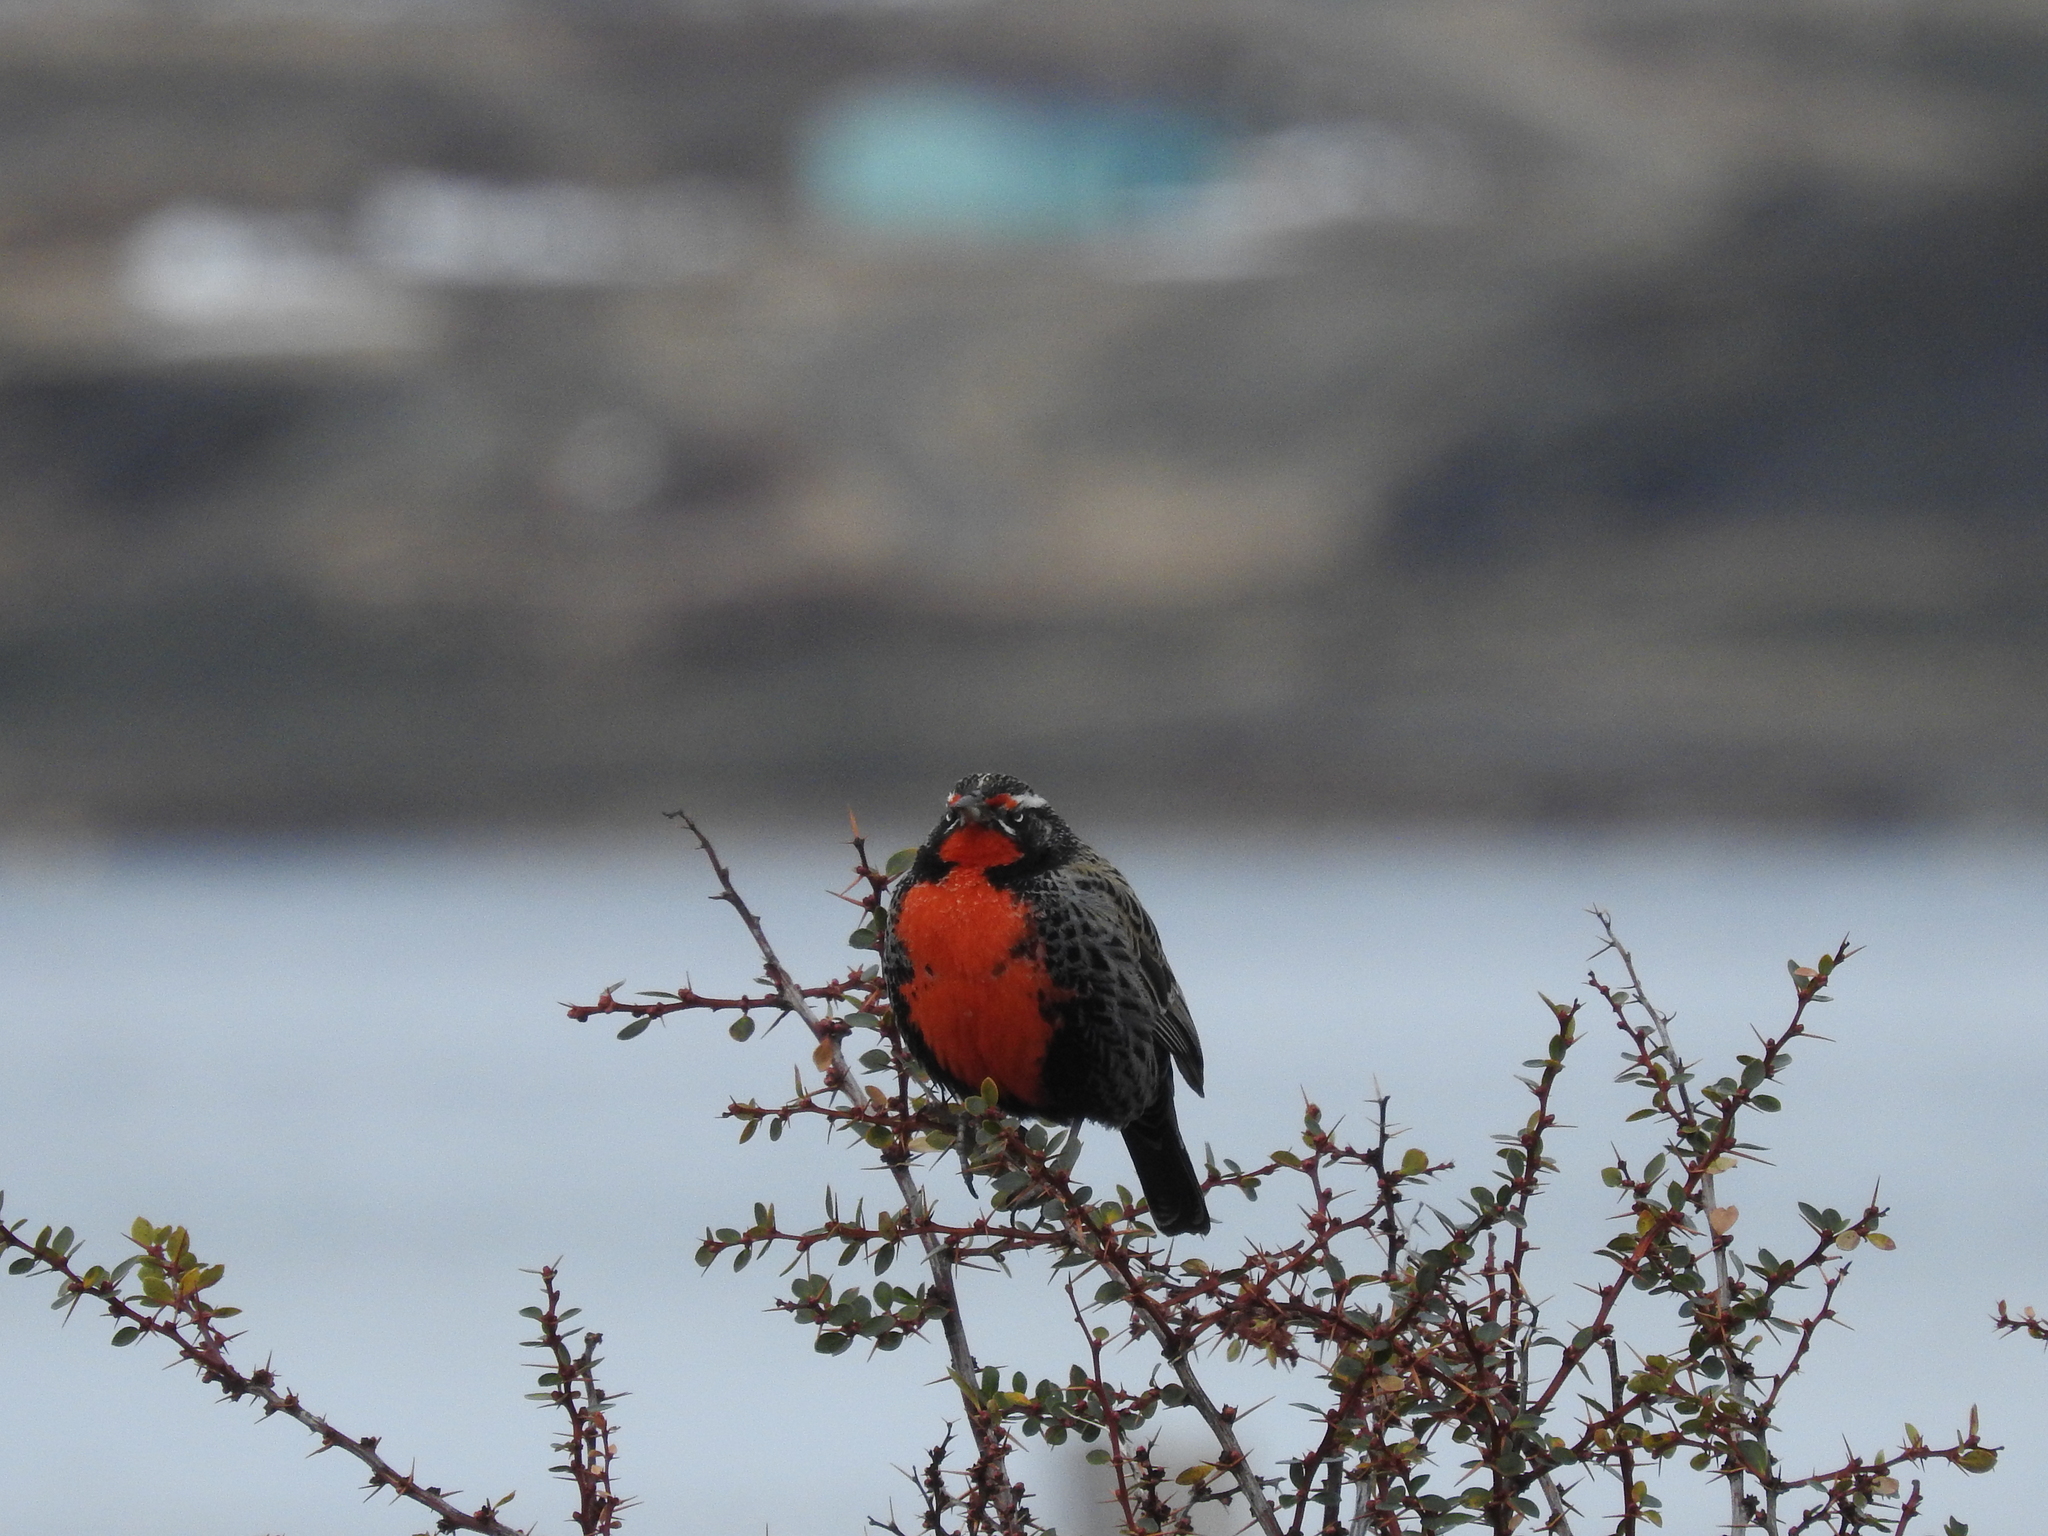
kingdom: Animalia
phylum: Chordata
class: Aves
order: Passeriformes
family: Icteridae
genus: Sturnella
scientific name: Sturnella loyca
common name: Long-tailed meadowlark
